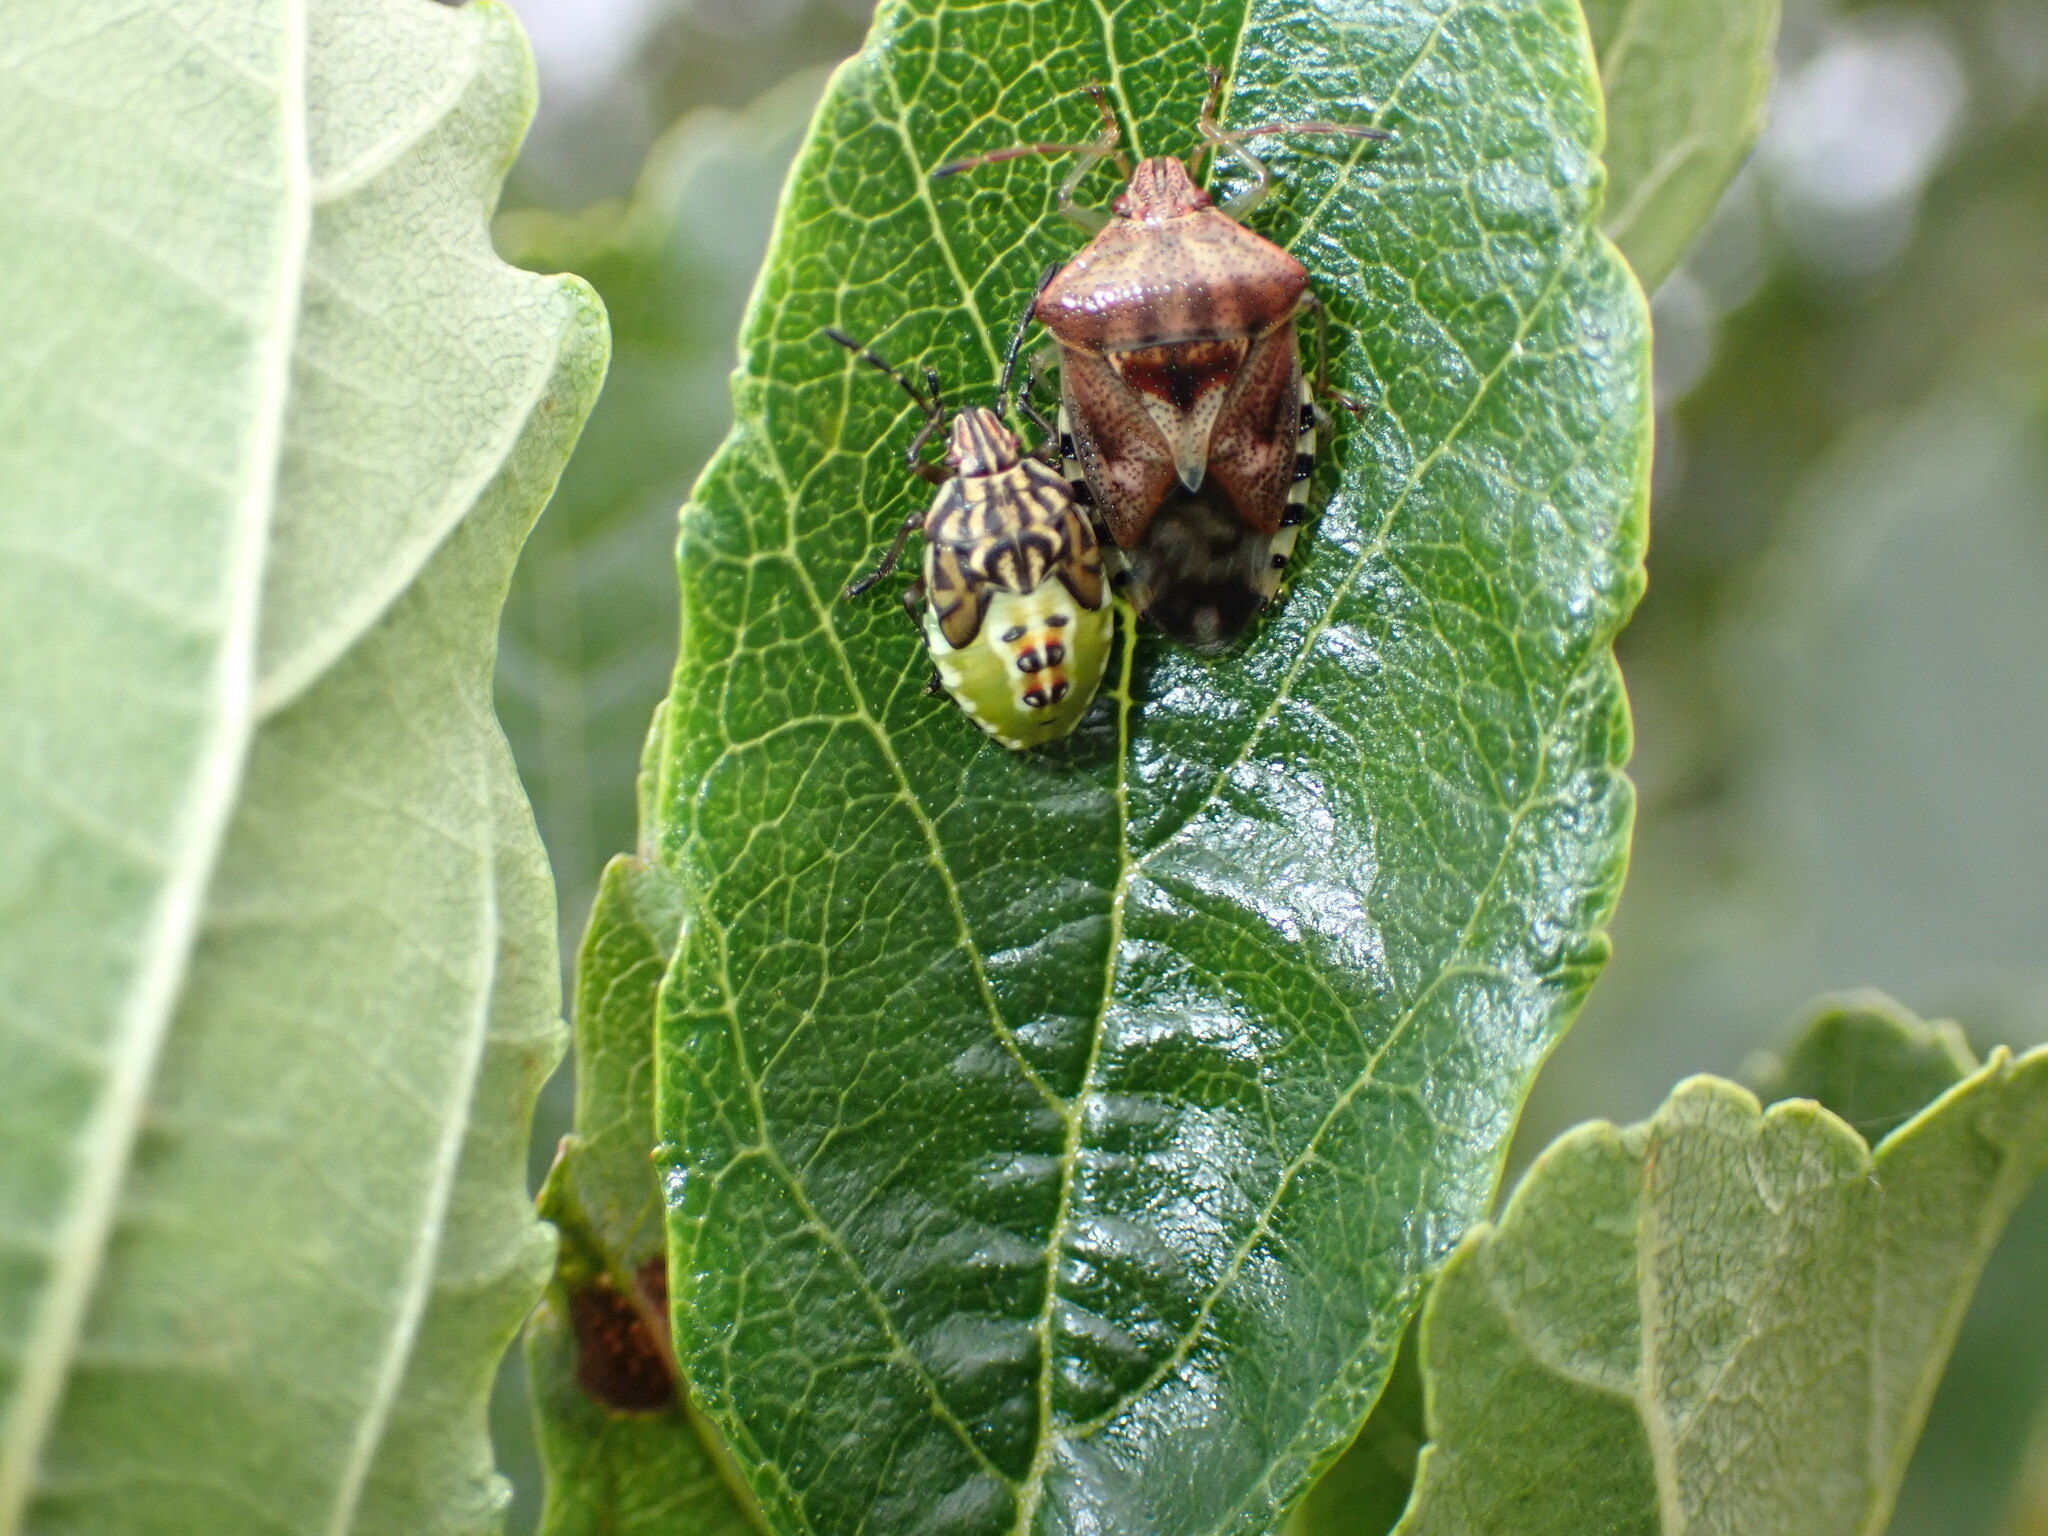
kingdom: Animalia
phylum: Arthropoda
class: Insecta
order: Hemiptera
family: Acanthosomatidae
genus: Elasmucha
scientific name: Elasmucha grisea
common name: Parent bug
